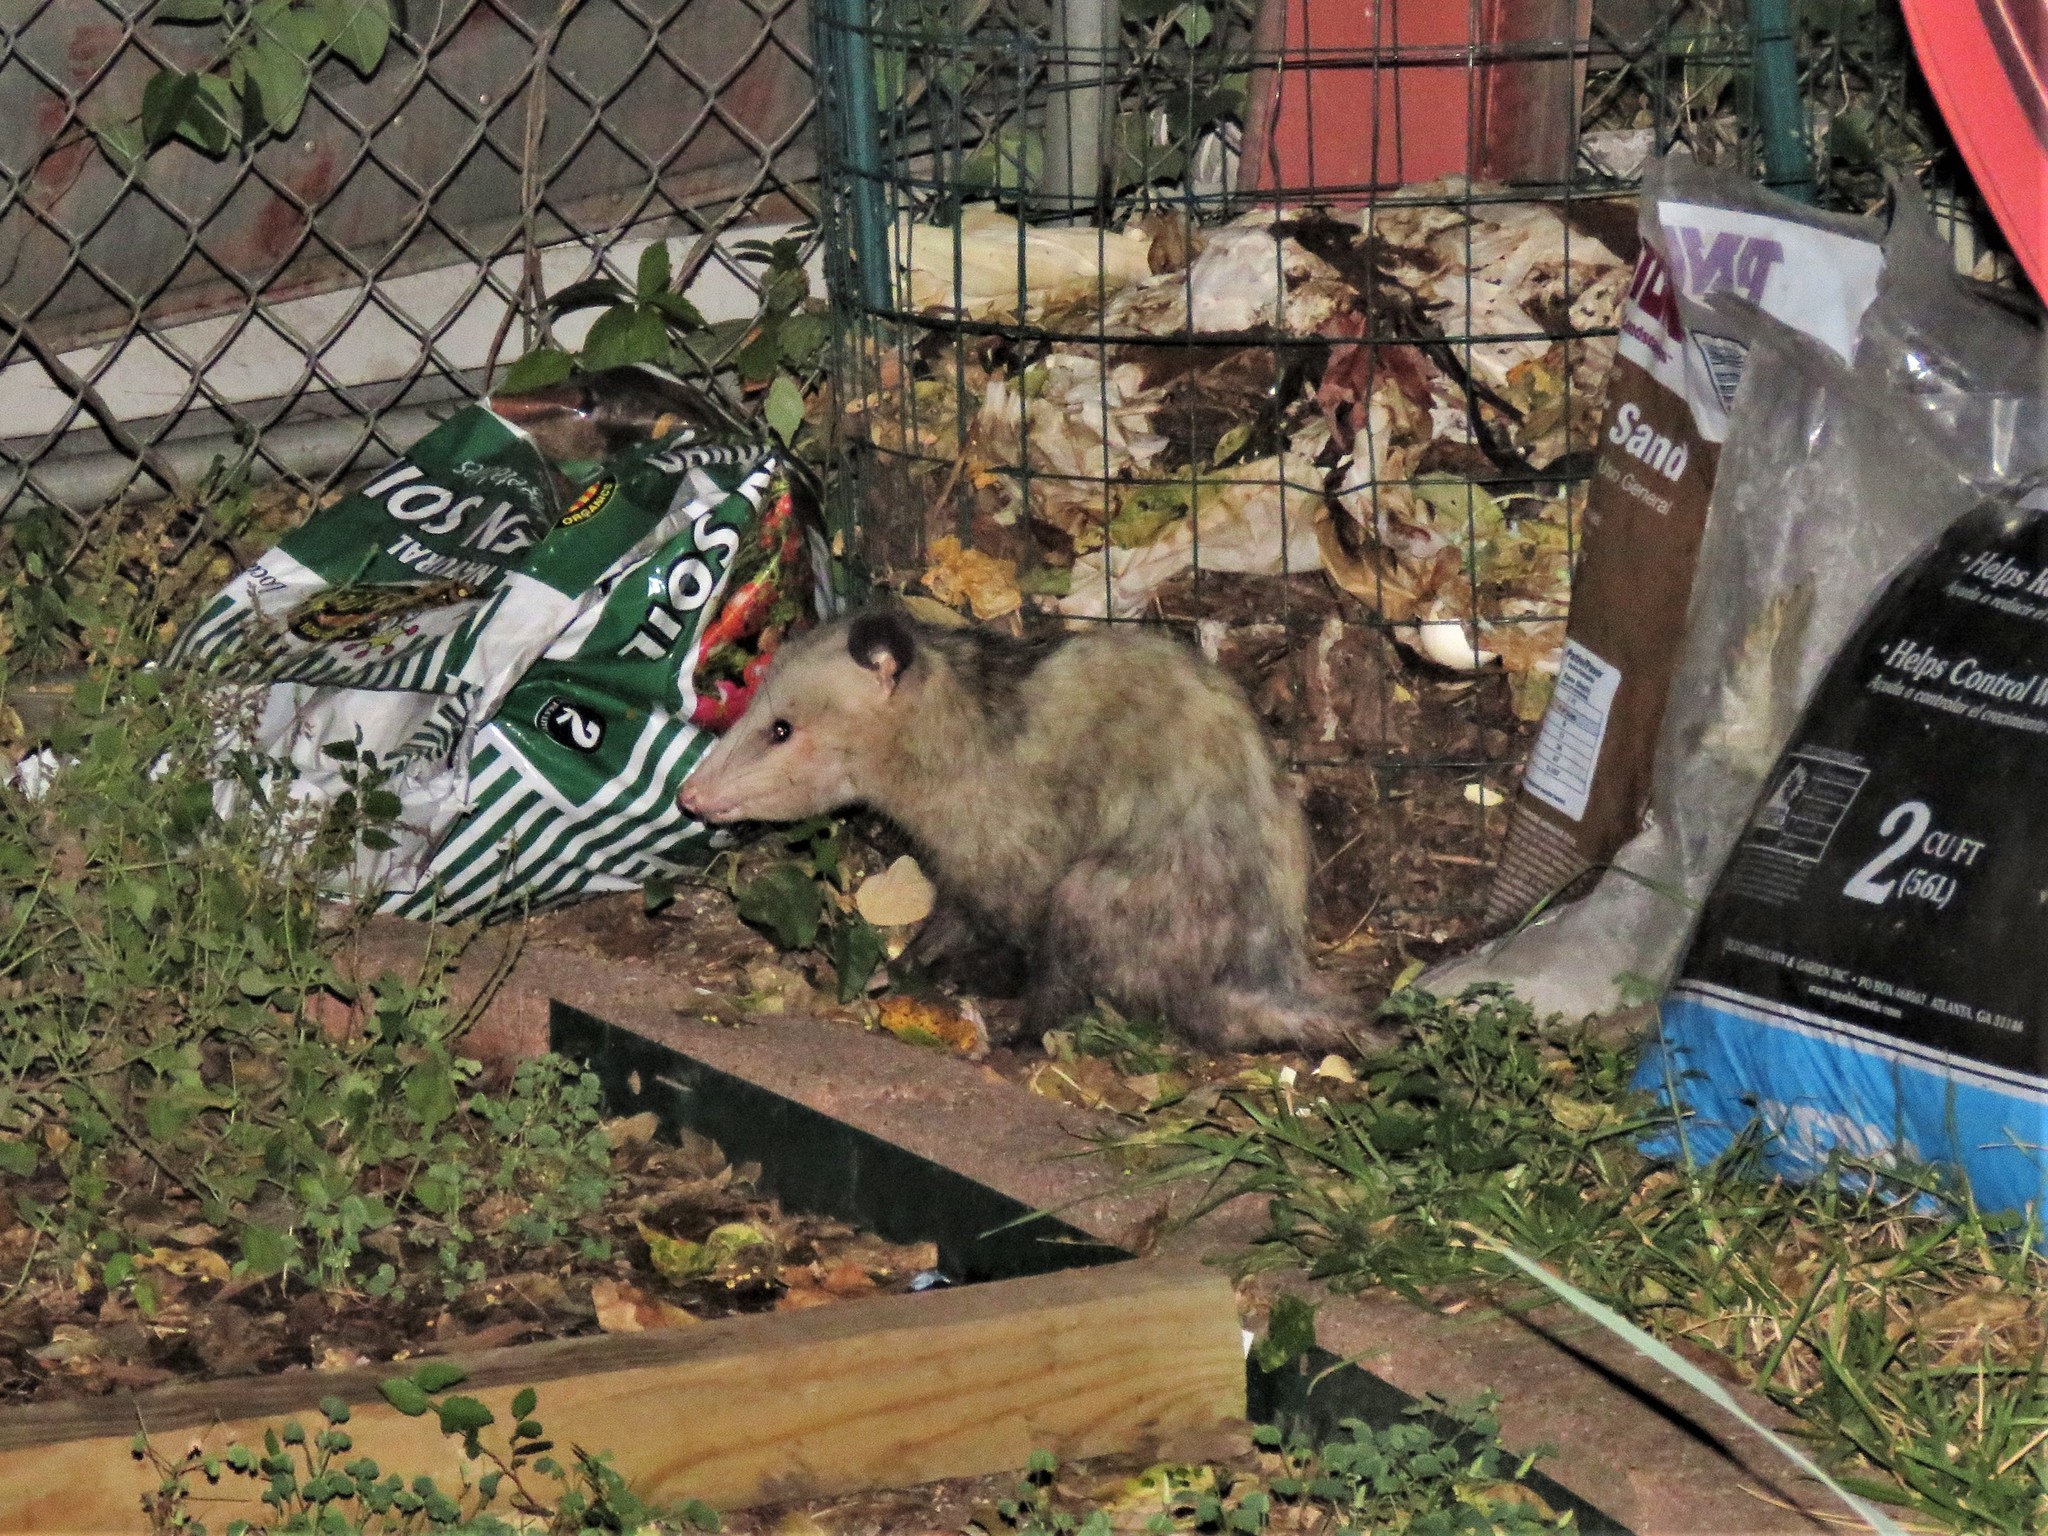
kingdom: Animalia
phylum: Chordata
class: Mammalia
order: Didelphimorphia
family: Didelphidae
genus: Didelphis
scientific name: Didelphis virginiana
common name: Virginia opossum
